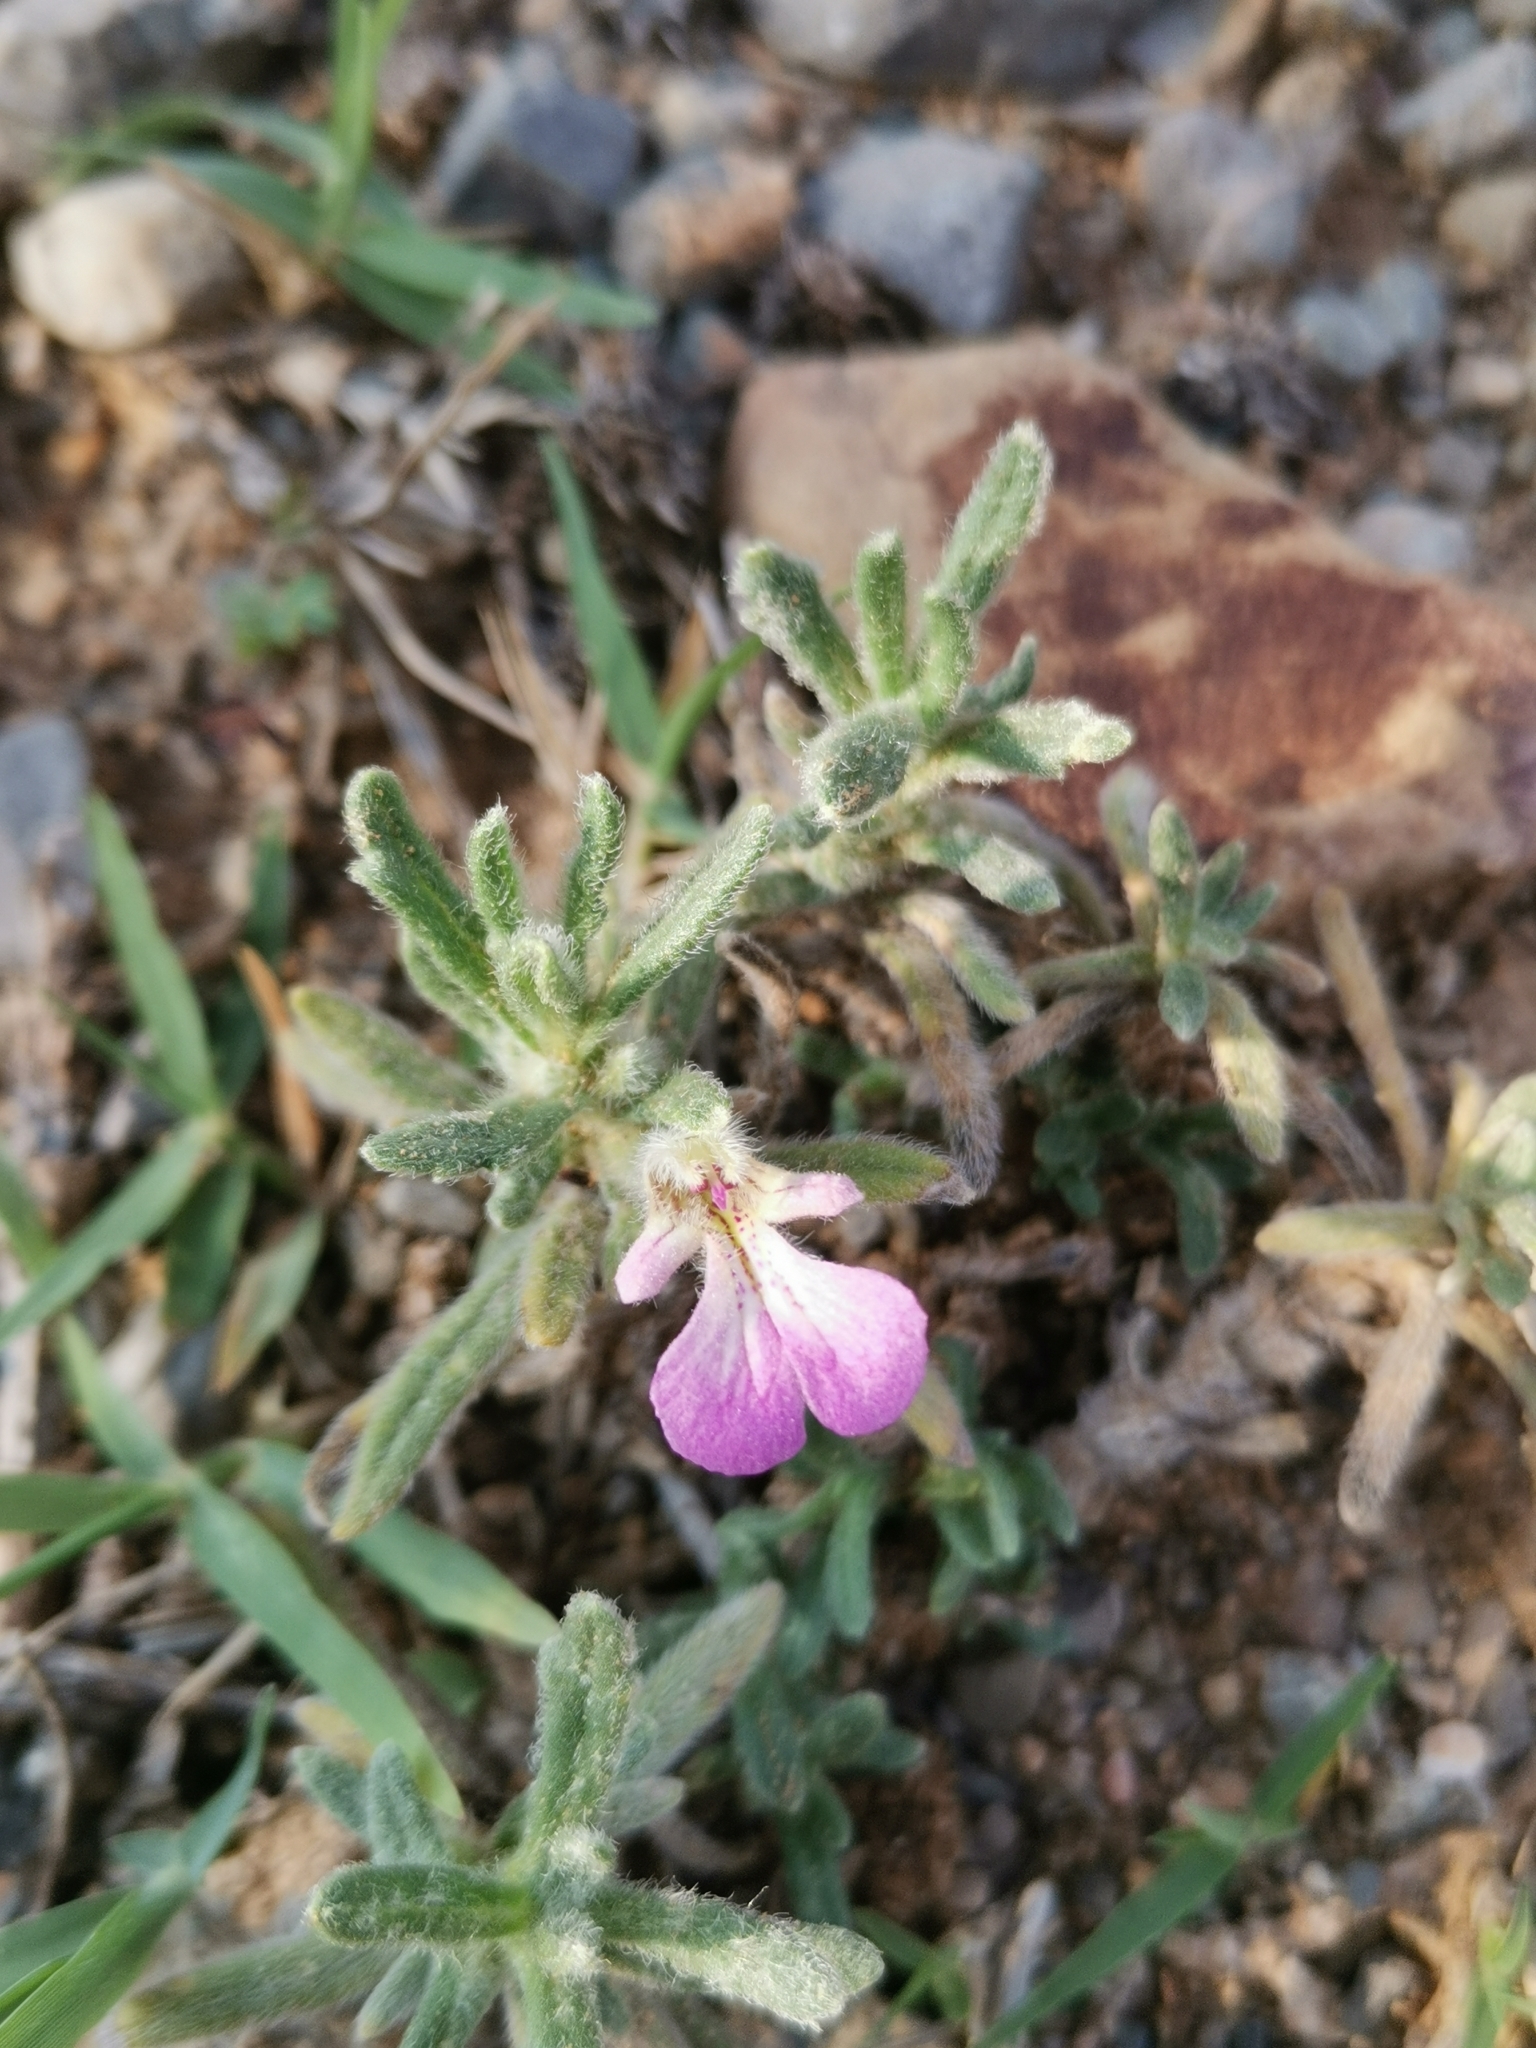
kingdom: Plantae
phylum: Tracheophyta
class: Magnoliopsida
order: Lamiales
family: Lamiaceae
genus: Ajuga
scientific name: Ajuga iva
